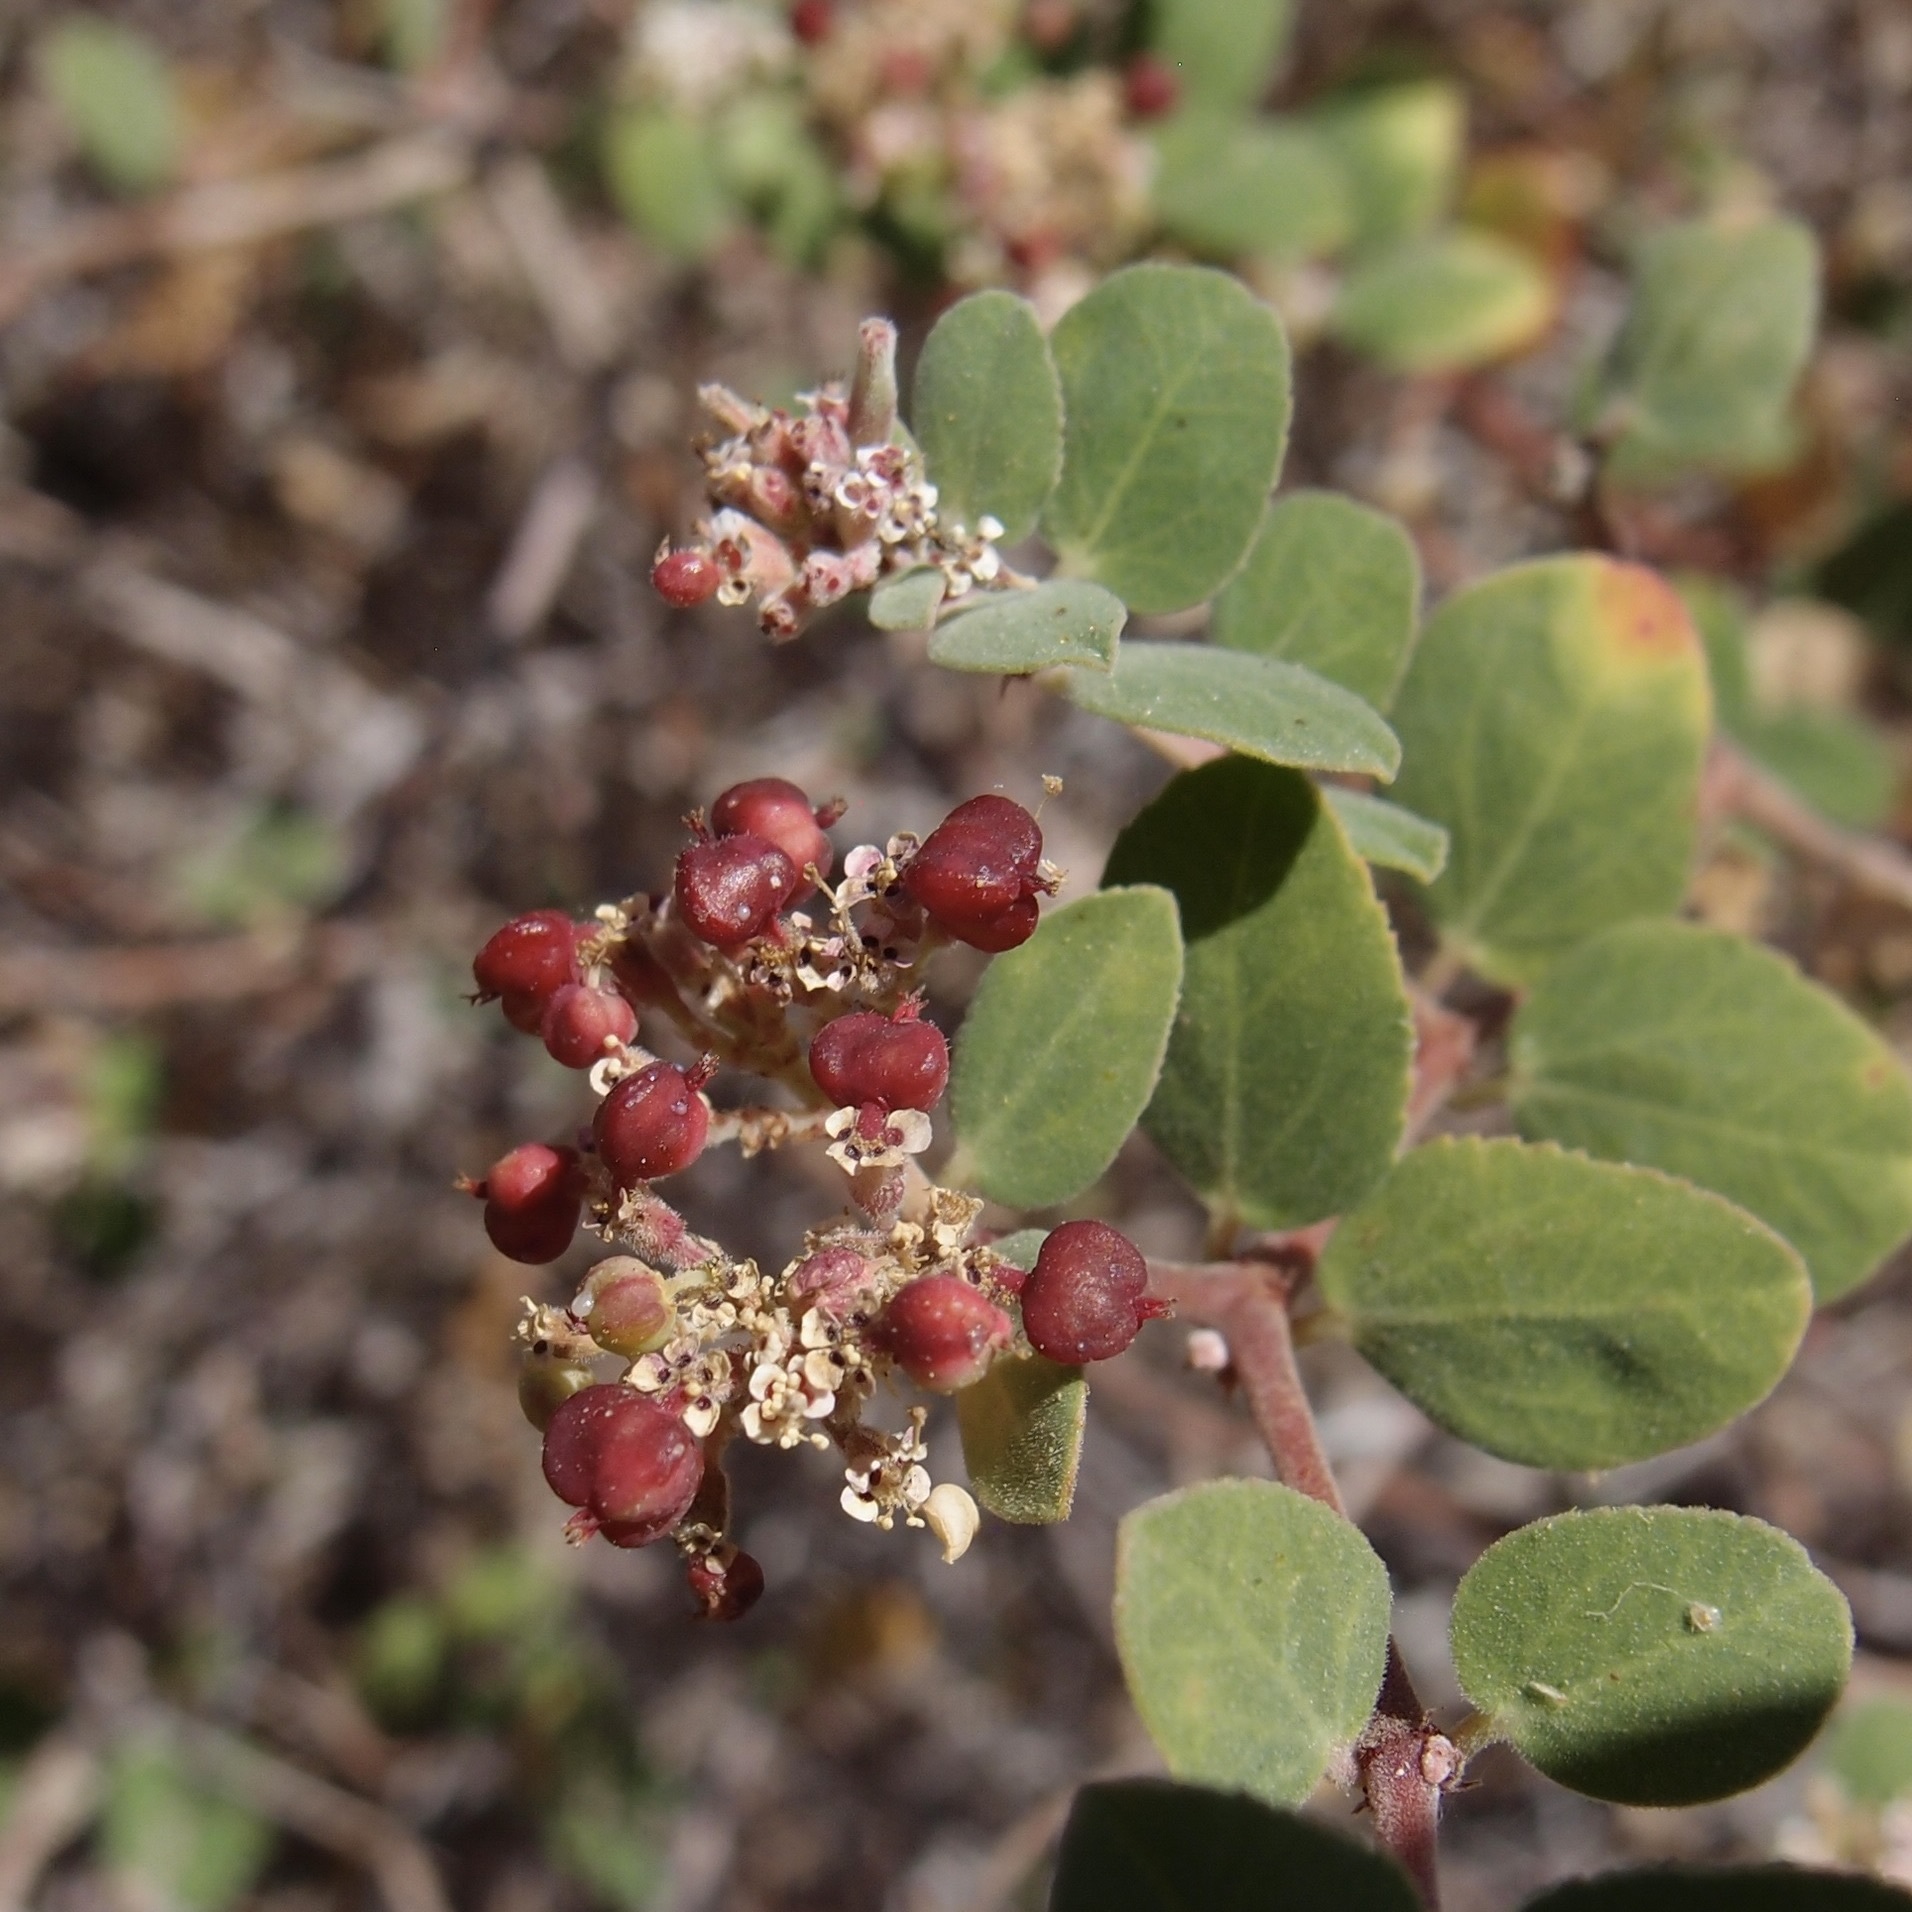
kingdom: Plantae
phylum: Tracheophyta
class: Magnoliopsida
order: Malpighiales
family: Euphorbiaceae
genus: Euphorbia
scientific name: Euphorbia tomentulosa
